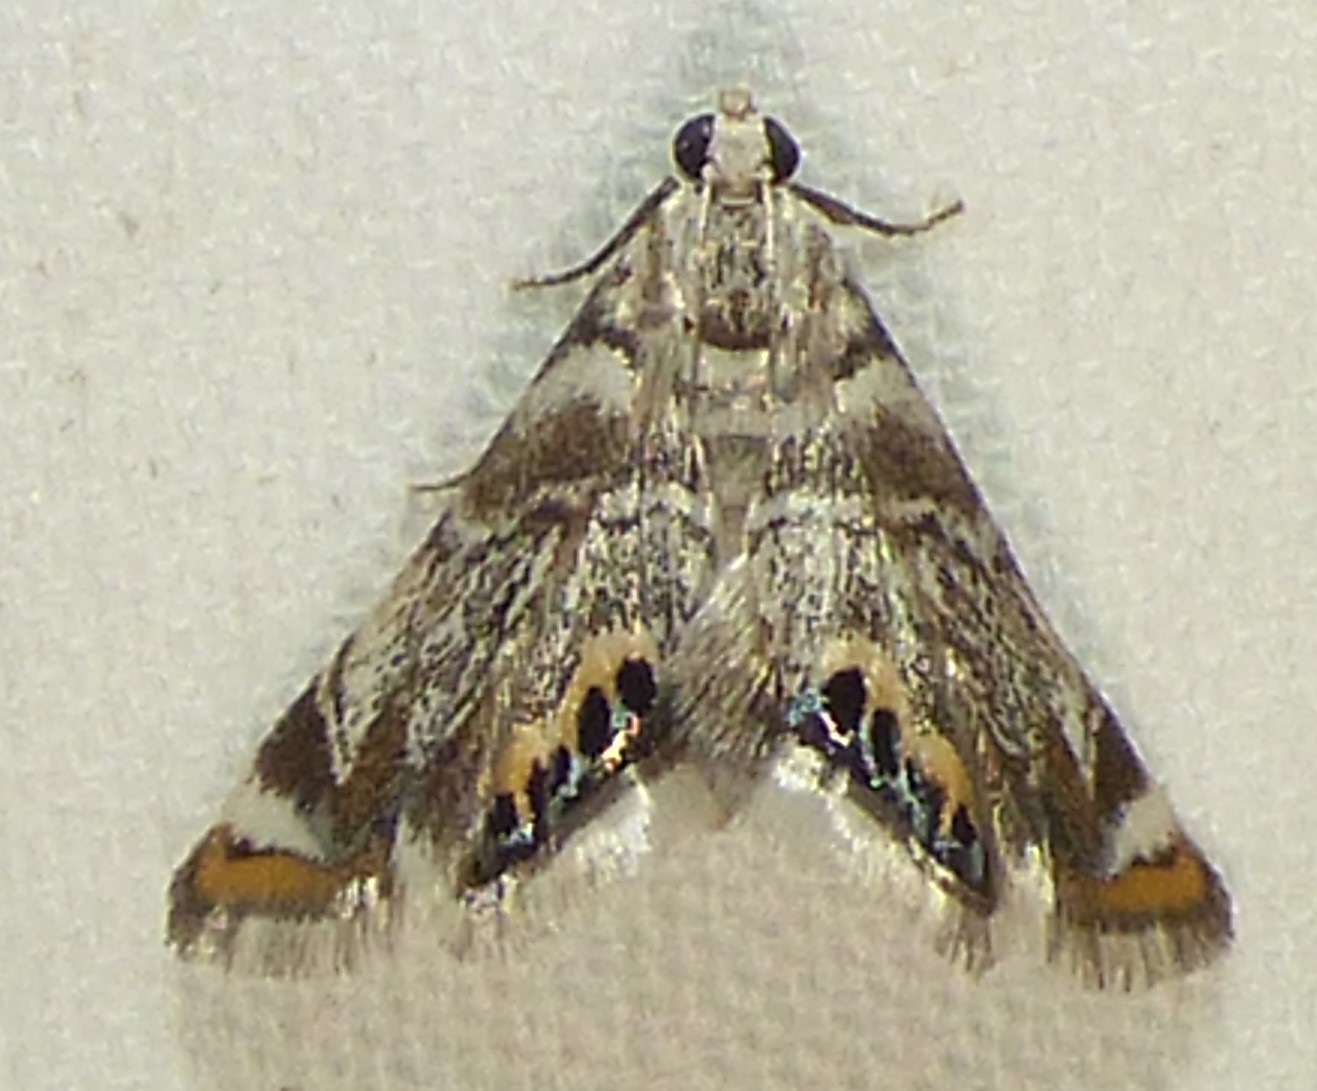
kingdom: Animalia
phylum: Arthropoda
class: Insecta
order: Lepidoptera
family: Crambidae
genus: Eoparargyractis
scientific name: Eoparargyractis irroratalis
